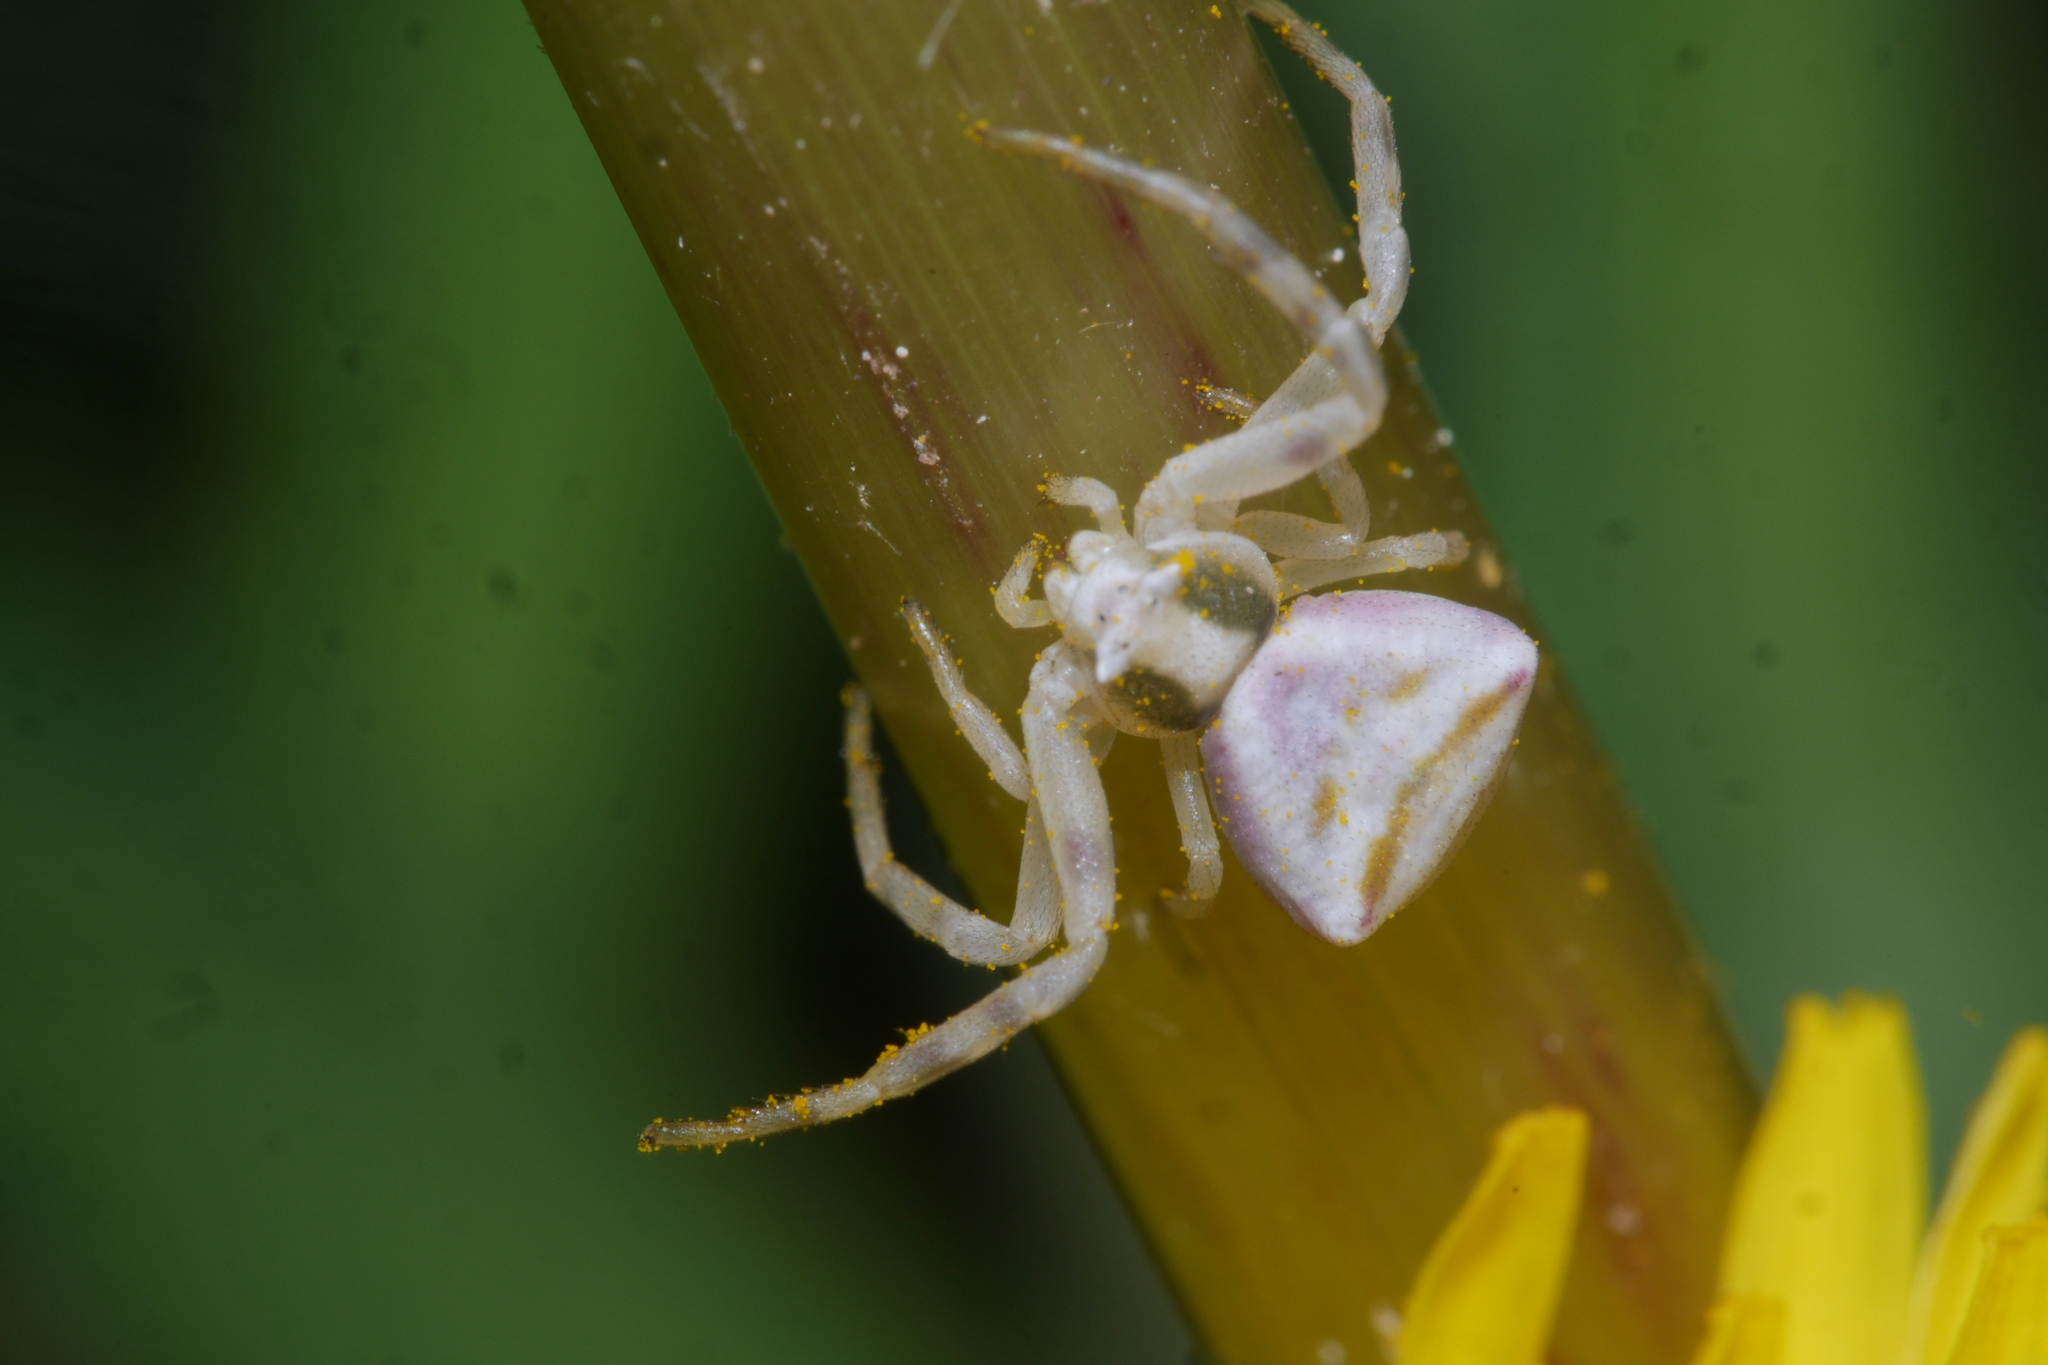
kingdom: Animalia
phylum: Arthropoda
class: Arachnida
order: Araneae
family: Thomisidae
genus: Thomisus
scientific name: Thomisus onustus
